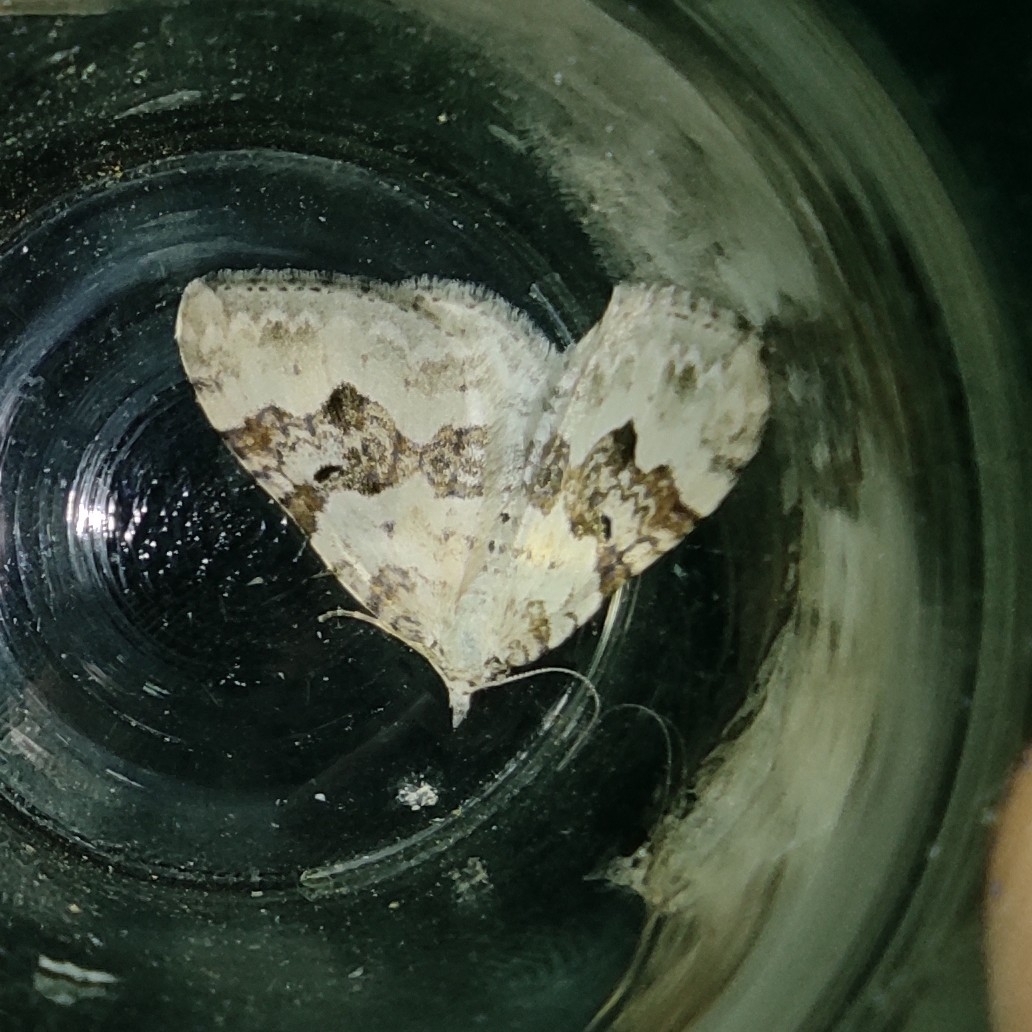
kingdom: Animalia
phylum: Arthropoda
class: Insecta
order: Lepidoptera
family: Geometridae
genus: Xanthorhoe
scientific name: Xanthorhoe montanata
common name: Silver-ground carpet
